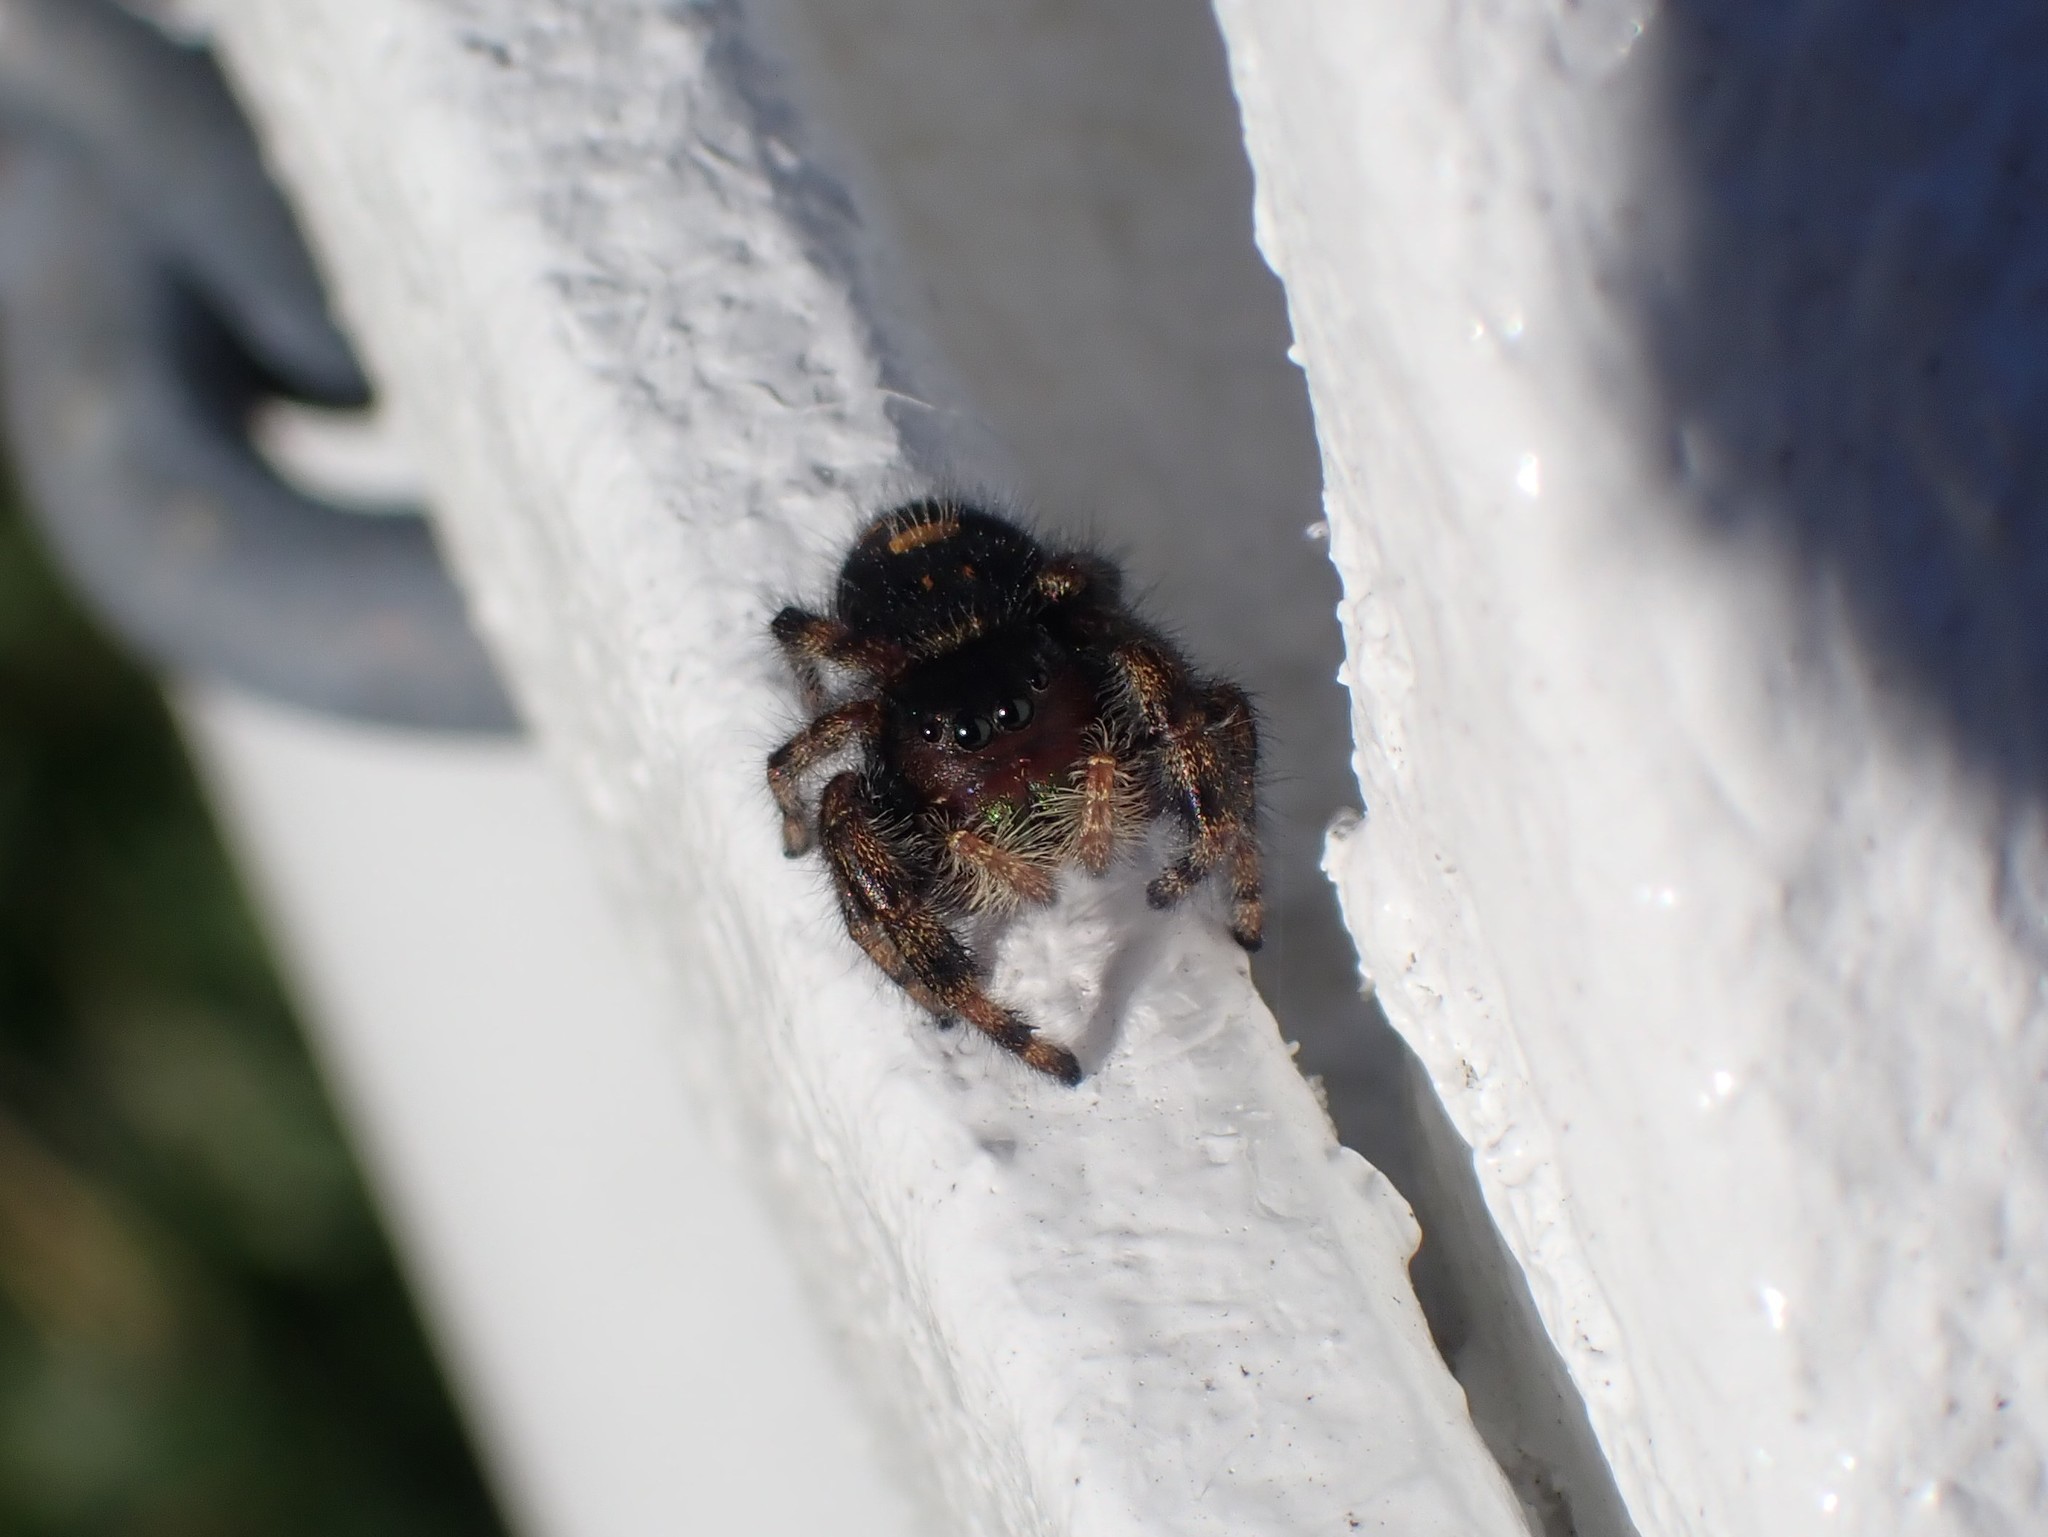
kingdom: Animalia
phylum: Arthropoda
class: Arachnida
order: Araneae
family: Salticidae
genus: Phidippus
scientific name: Phidippus audax
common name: Bold jumper
